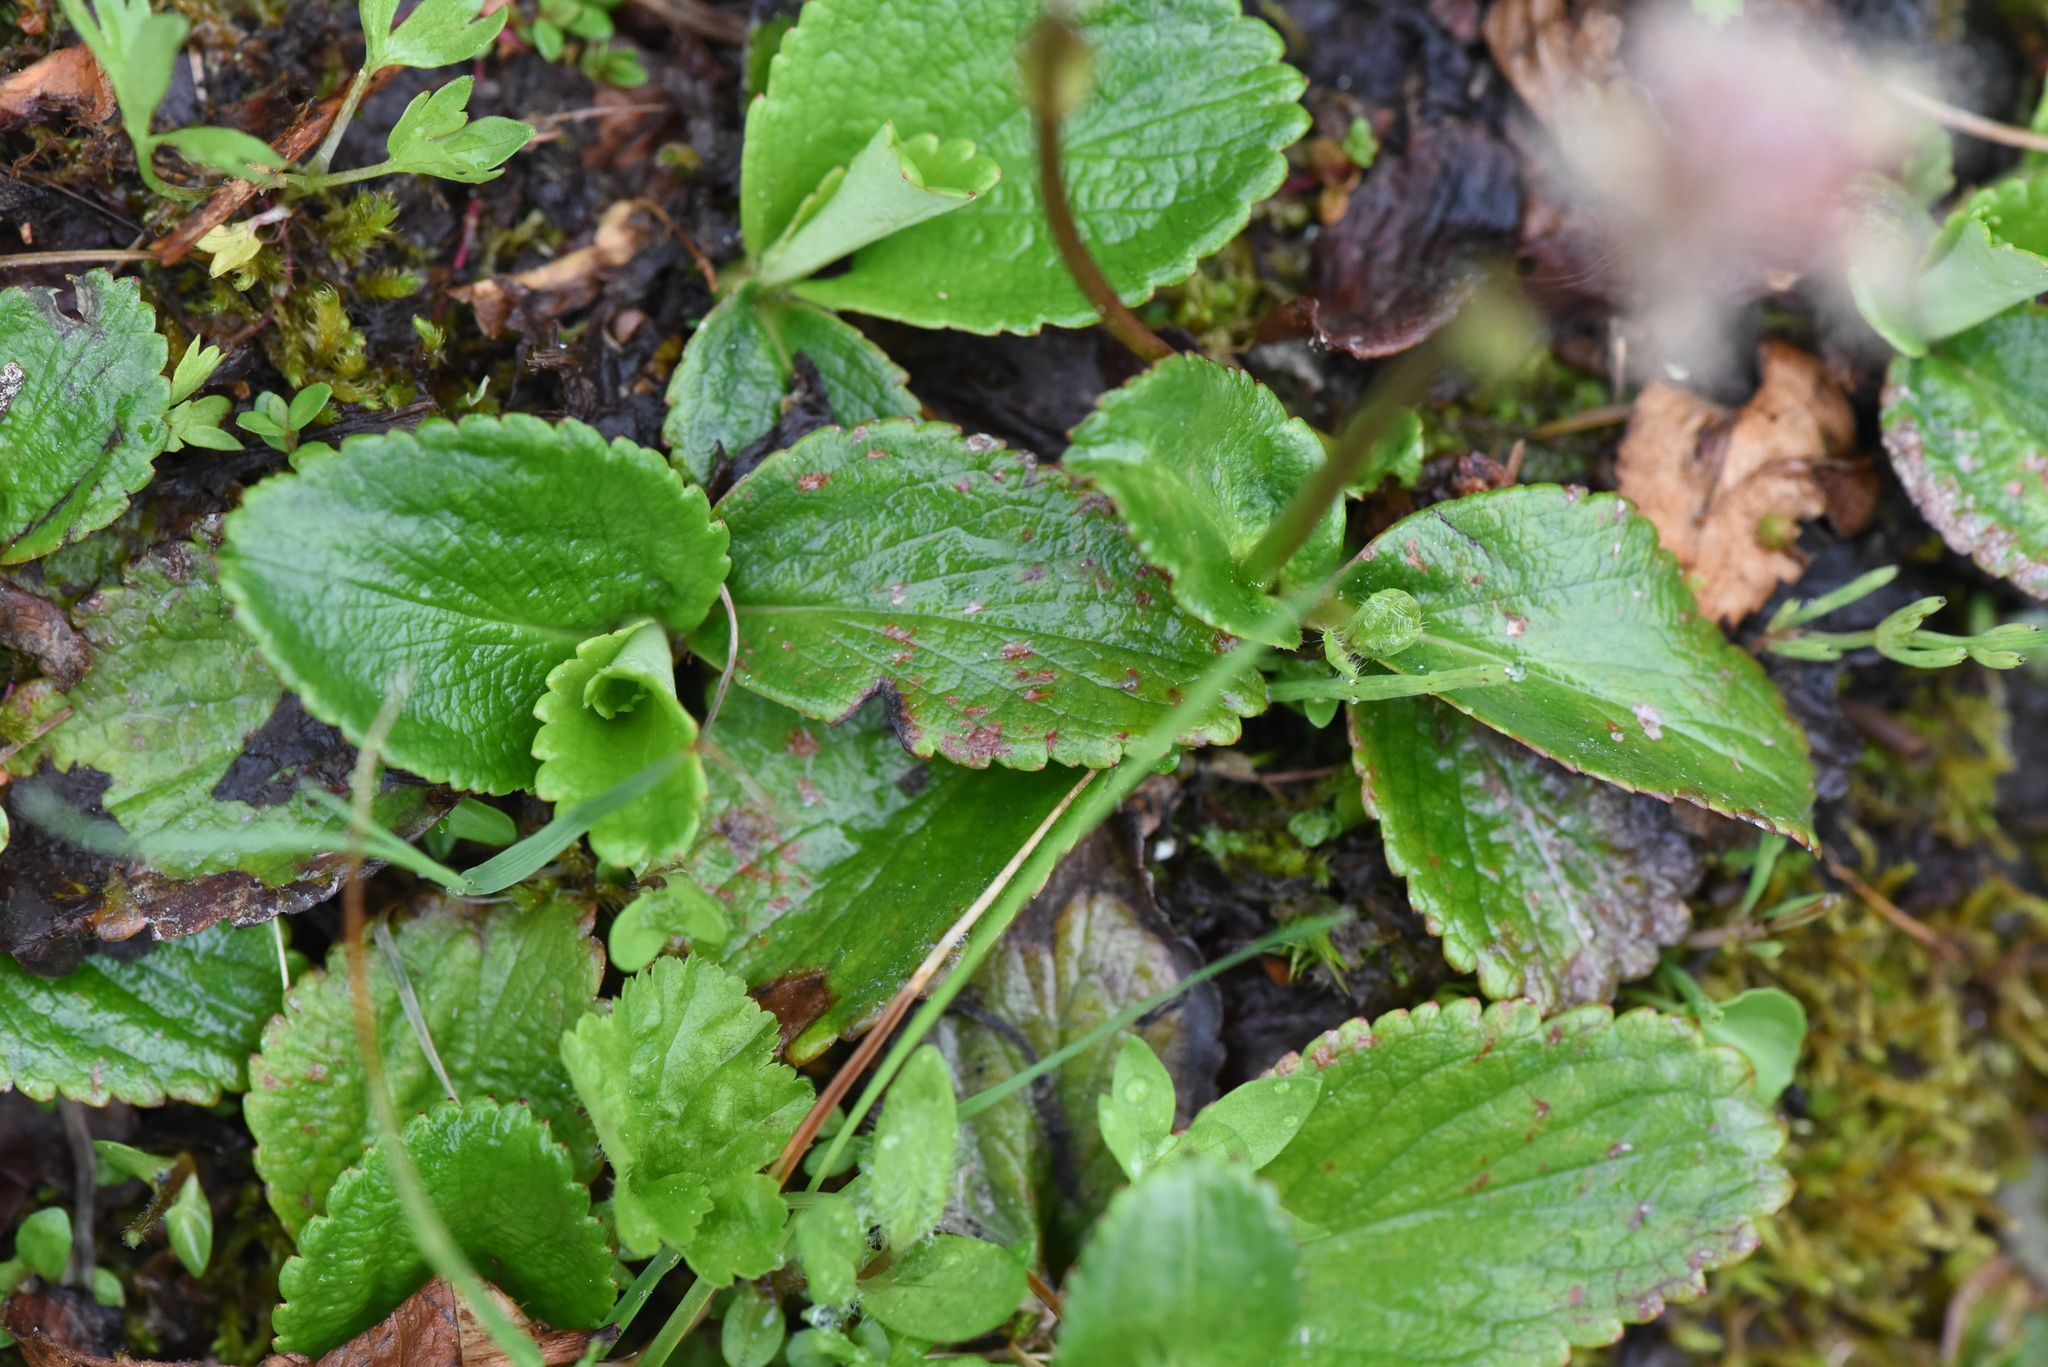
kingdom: Plantae
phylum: Tracheophyta
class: Magnoliopsida
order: Saxifragales
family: Saxifragaceae
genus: Leptarrhena
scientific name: Leptarrhena pyrolifolia
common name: Leatherleaf-saxifrage
